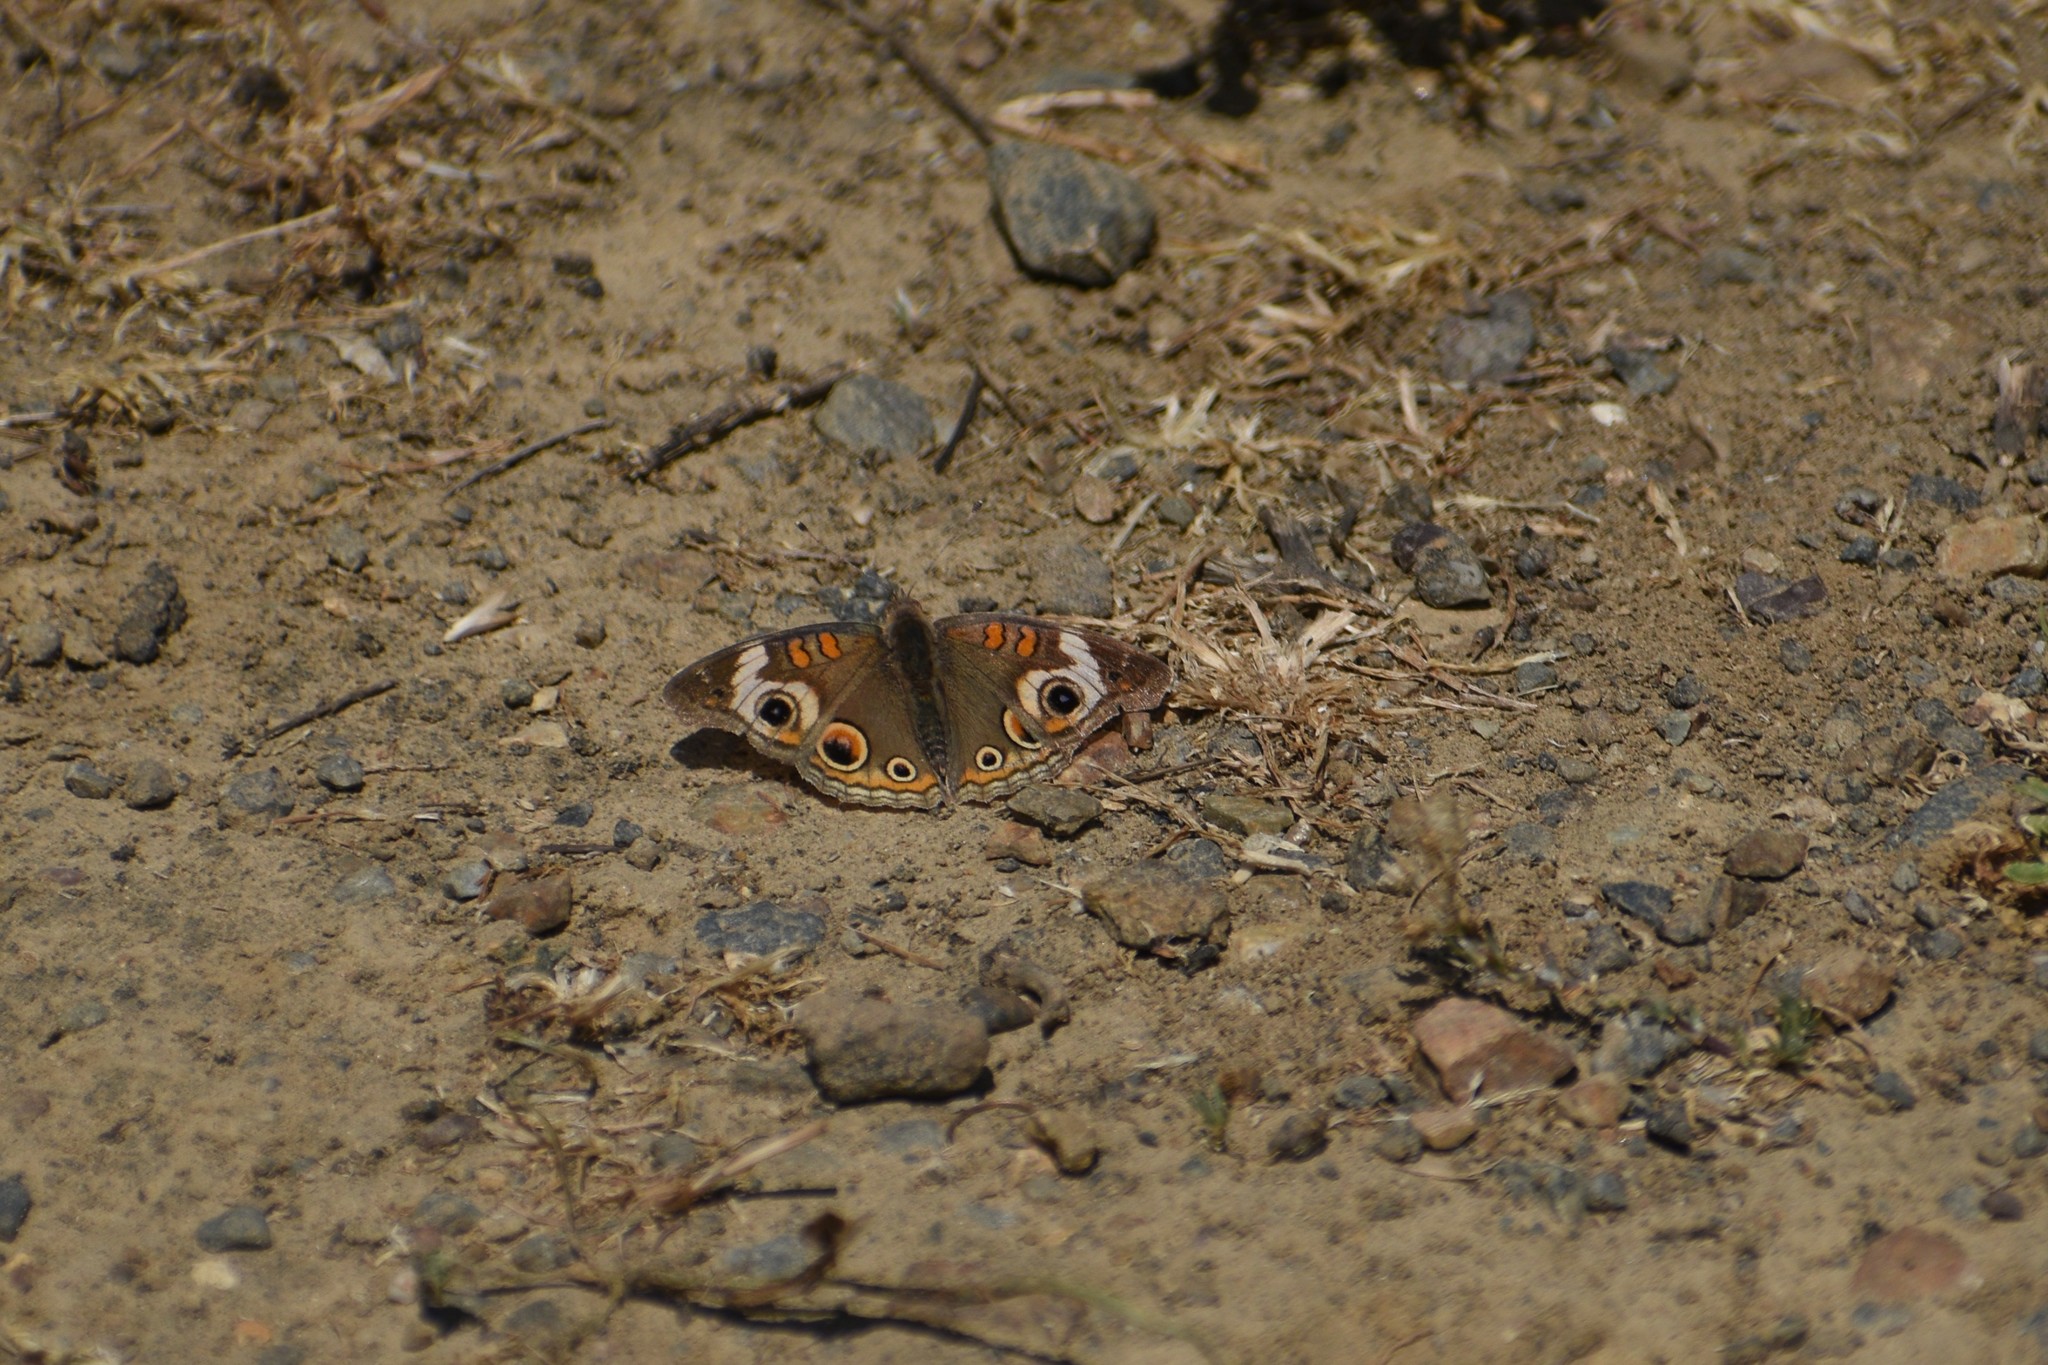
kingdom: Animalia
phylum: Arthropoda
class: Insecta
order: Lepidoptera
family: Nymphalidae
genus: Junonia
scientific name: Junonia grisea
